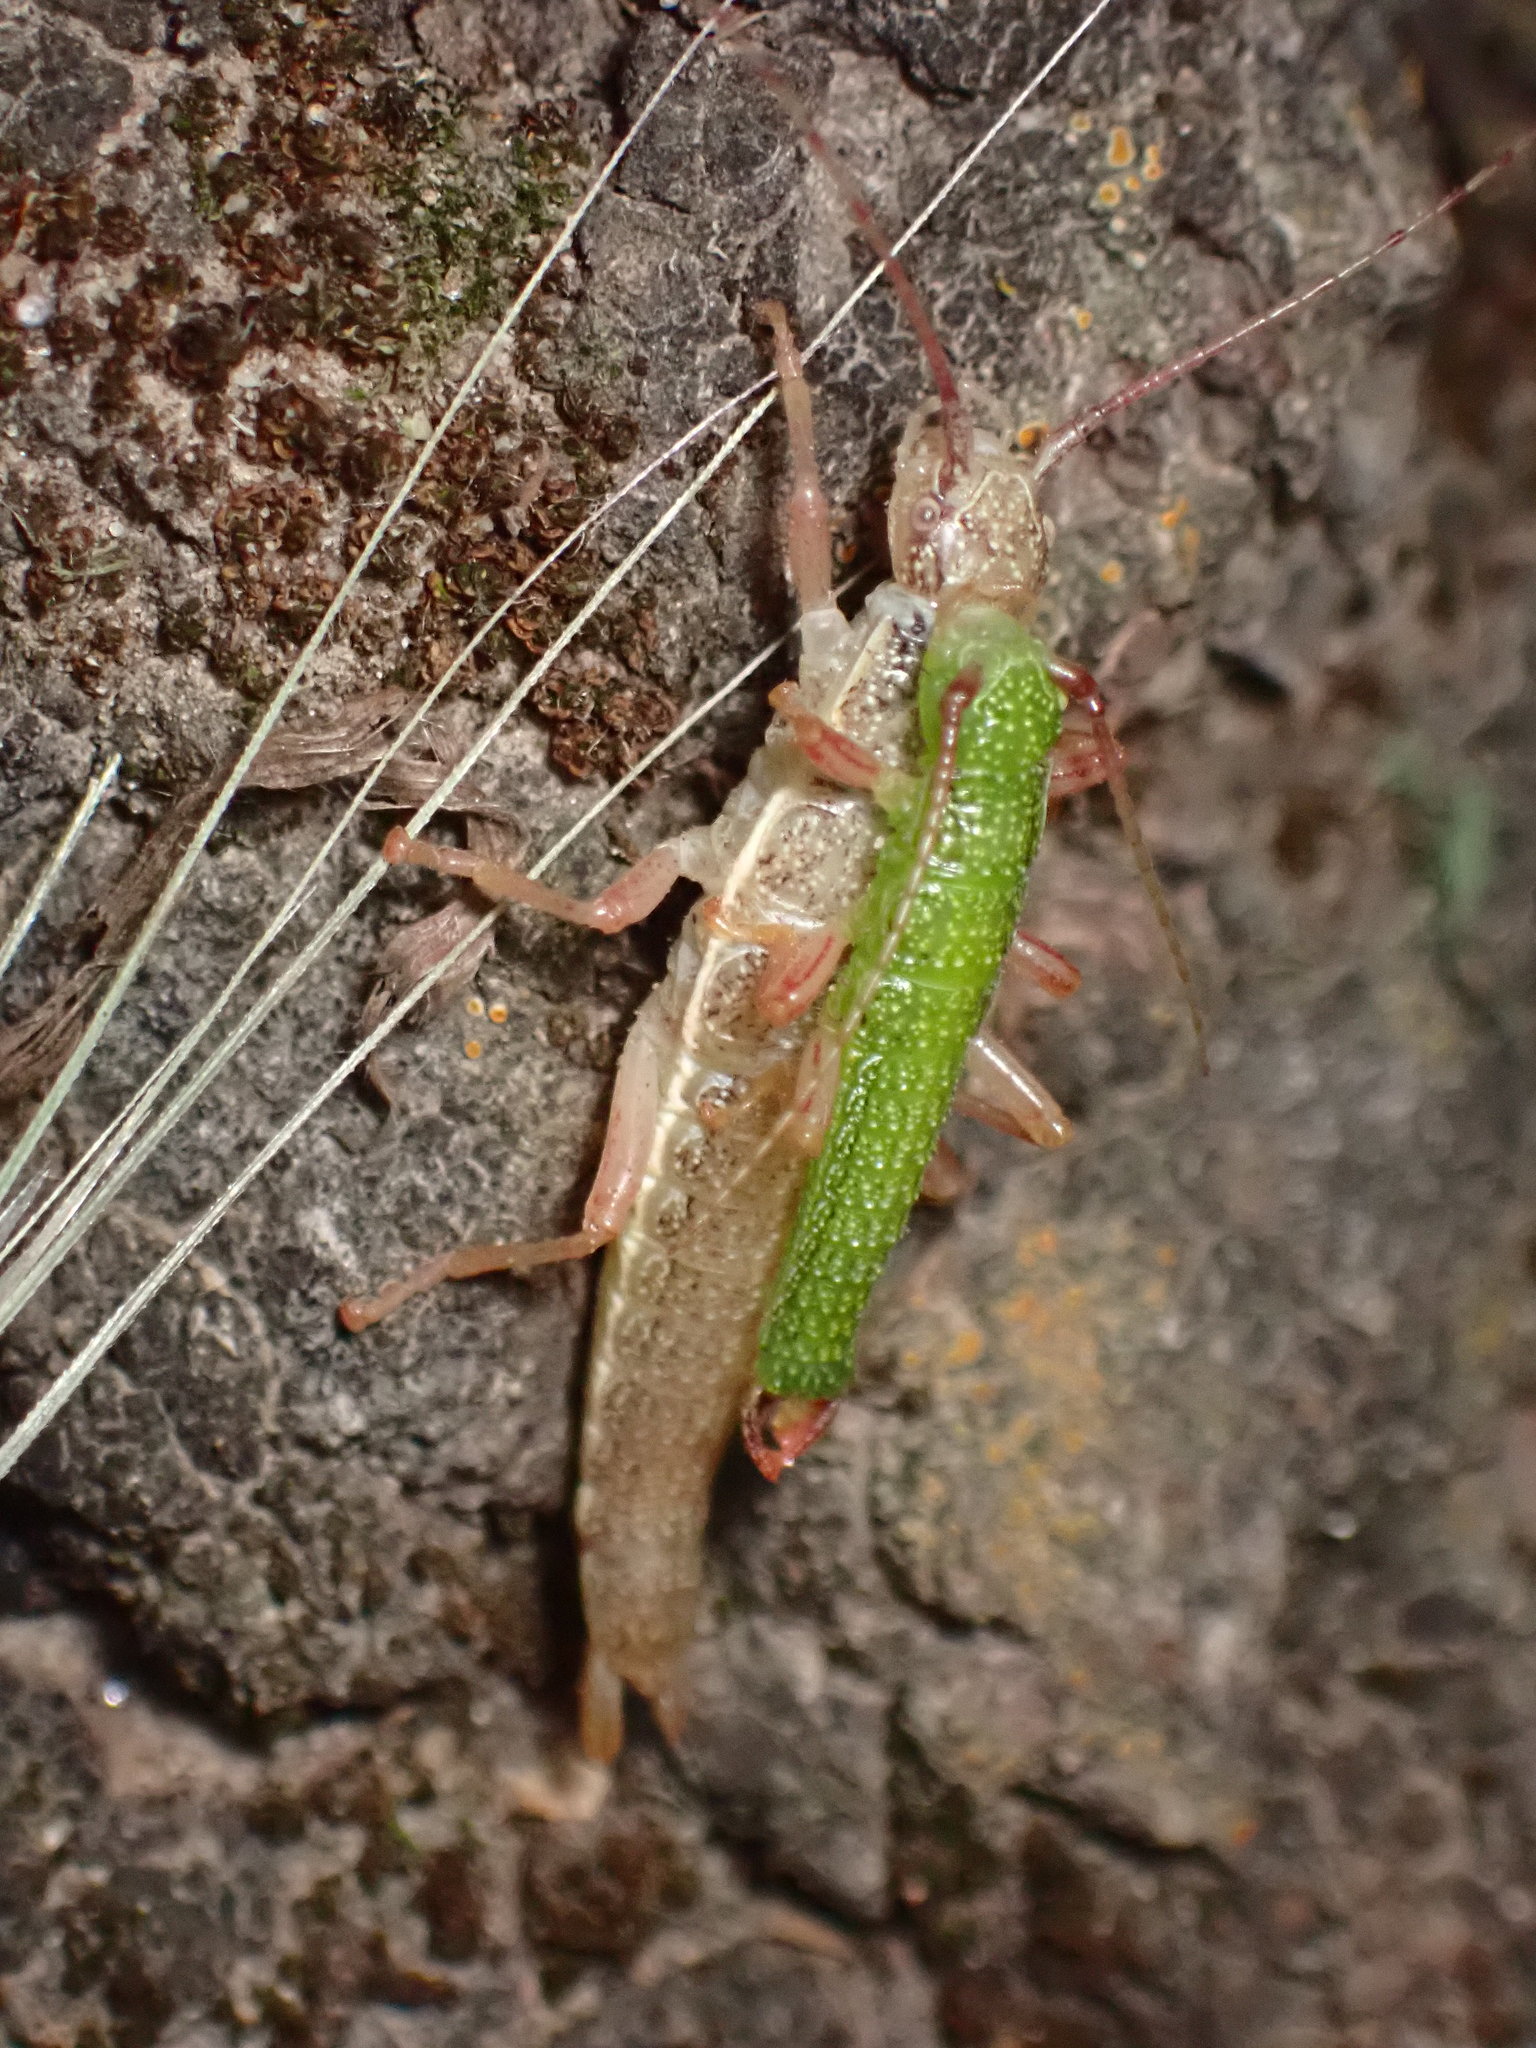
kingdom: Animalia
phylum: Arthropoda
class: Insecta
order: Phasmida
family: Timematidae
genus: Timema
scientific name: Timema californicum
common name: California timema
